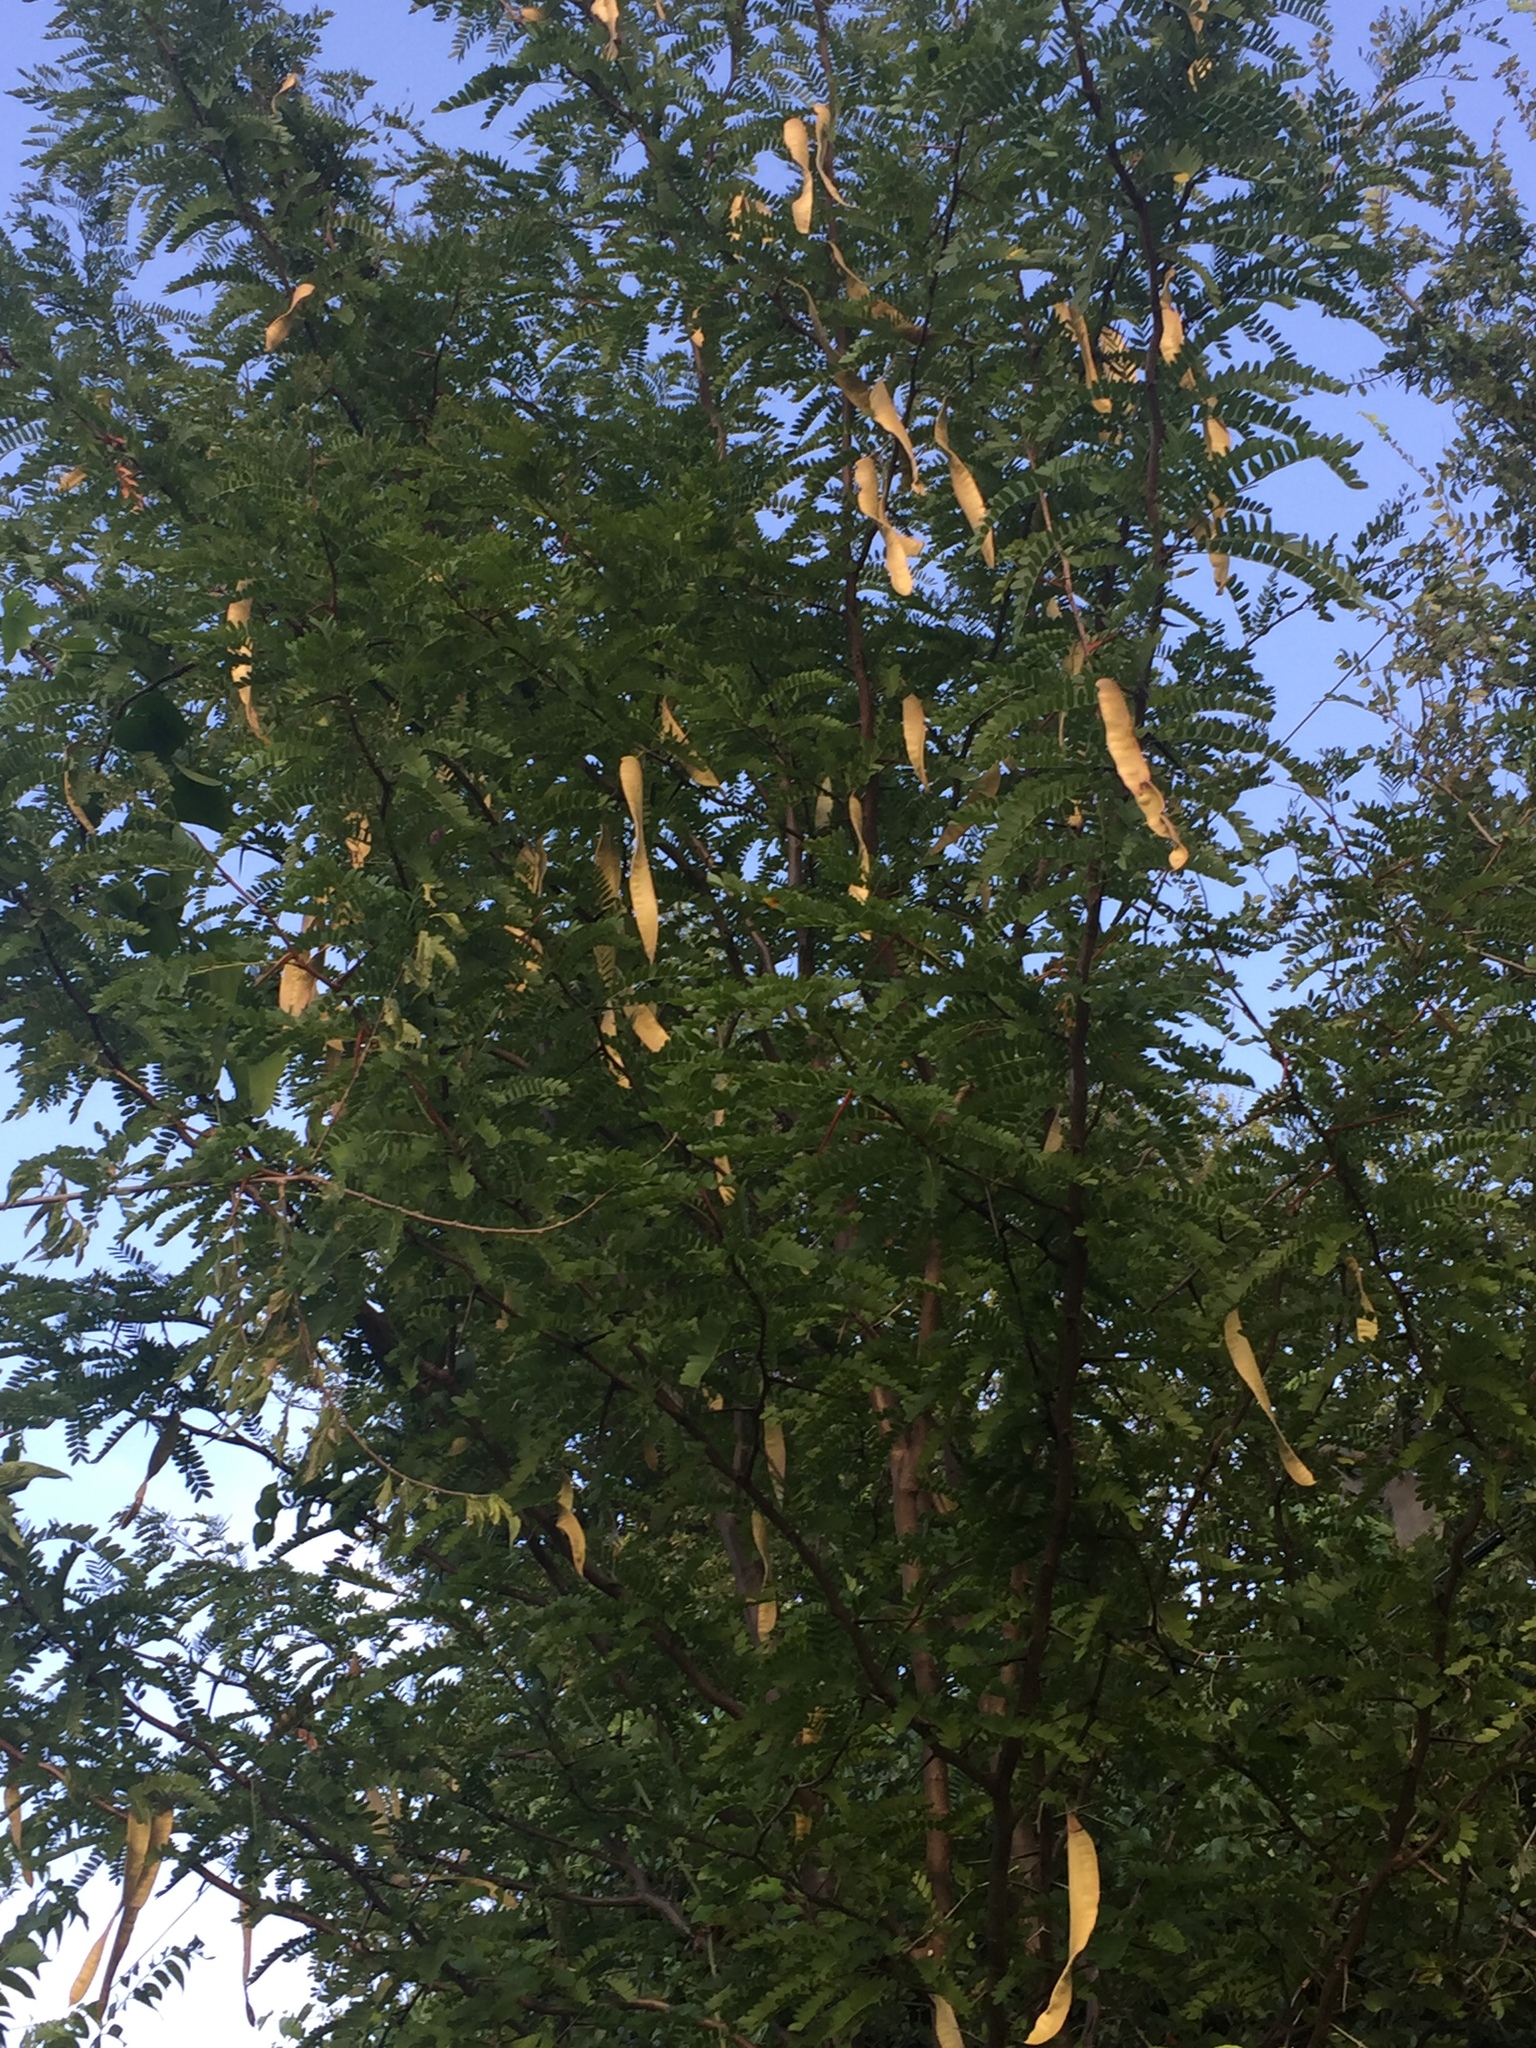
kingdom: Plantae
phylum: Tracheophyta
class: Magnoliopsida
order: Fabales
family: Fabaceae
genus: Gleditsia
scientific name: Gleditsia triacanthos
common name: Common honeylocust
